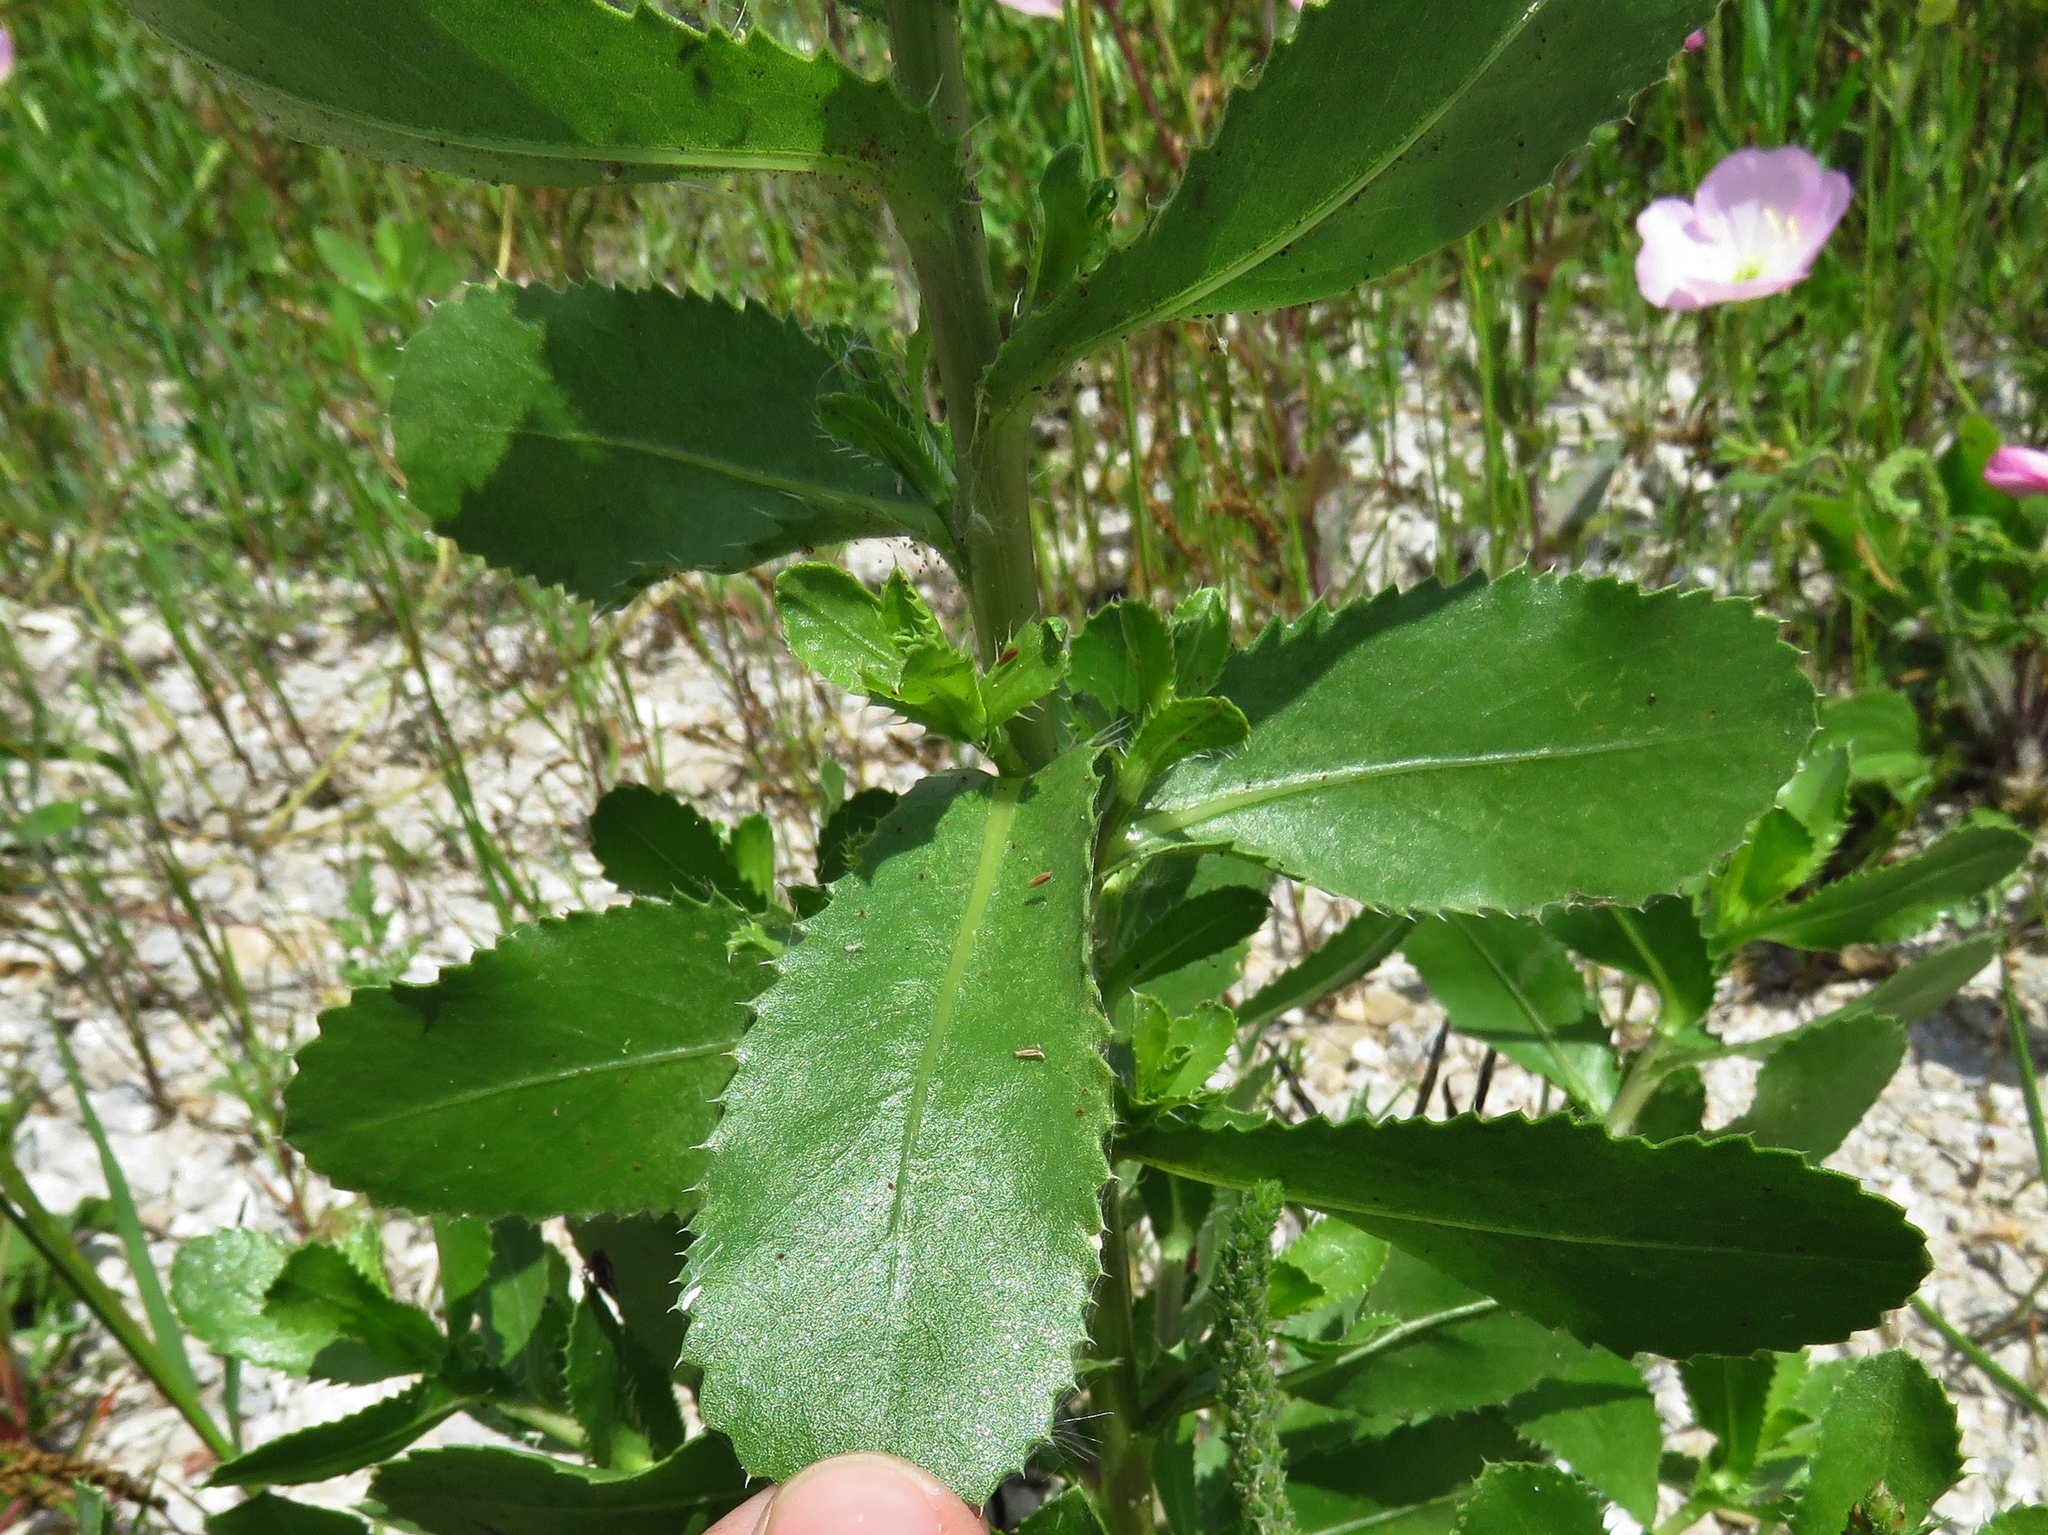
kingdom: Plantae
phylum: Tracheophyta
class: Magnoliopsida
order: Asterales
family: Asteraceae
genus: Grindelia
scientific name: Grindelia ciliata
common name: Goldenweed
